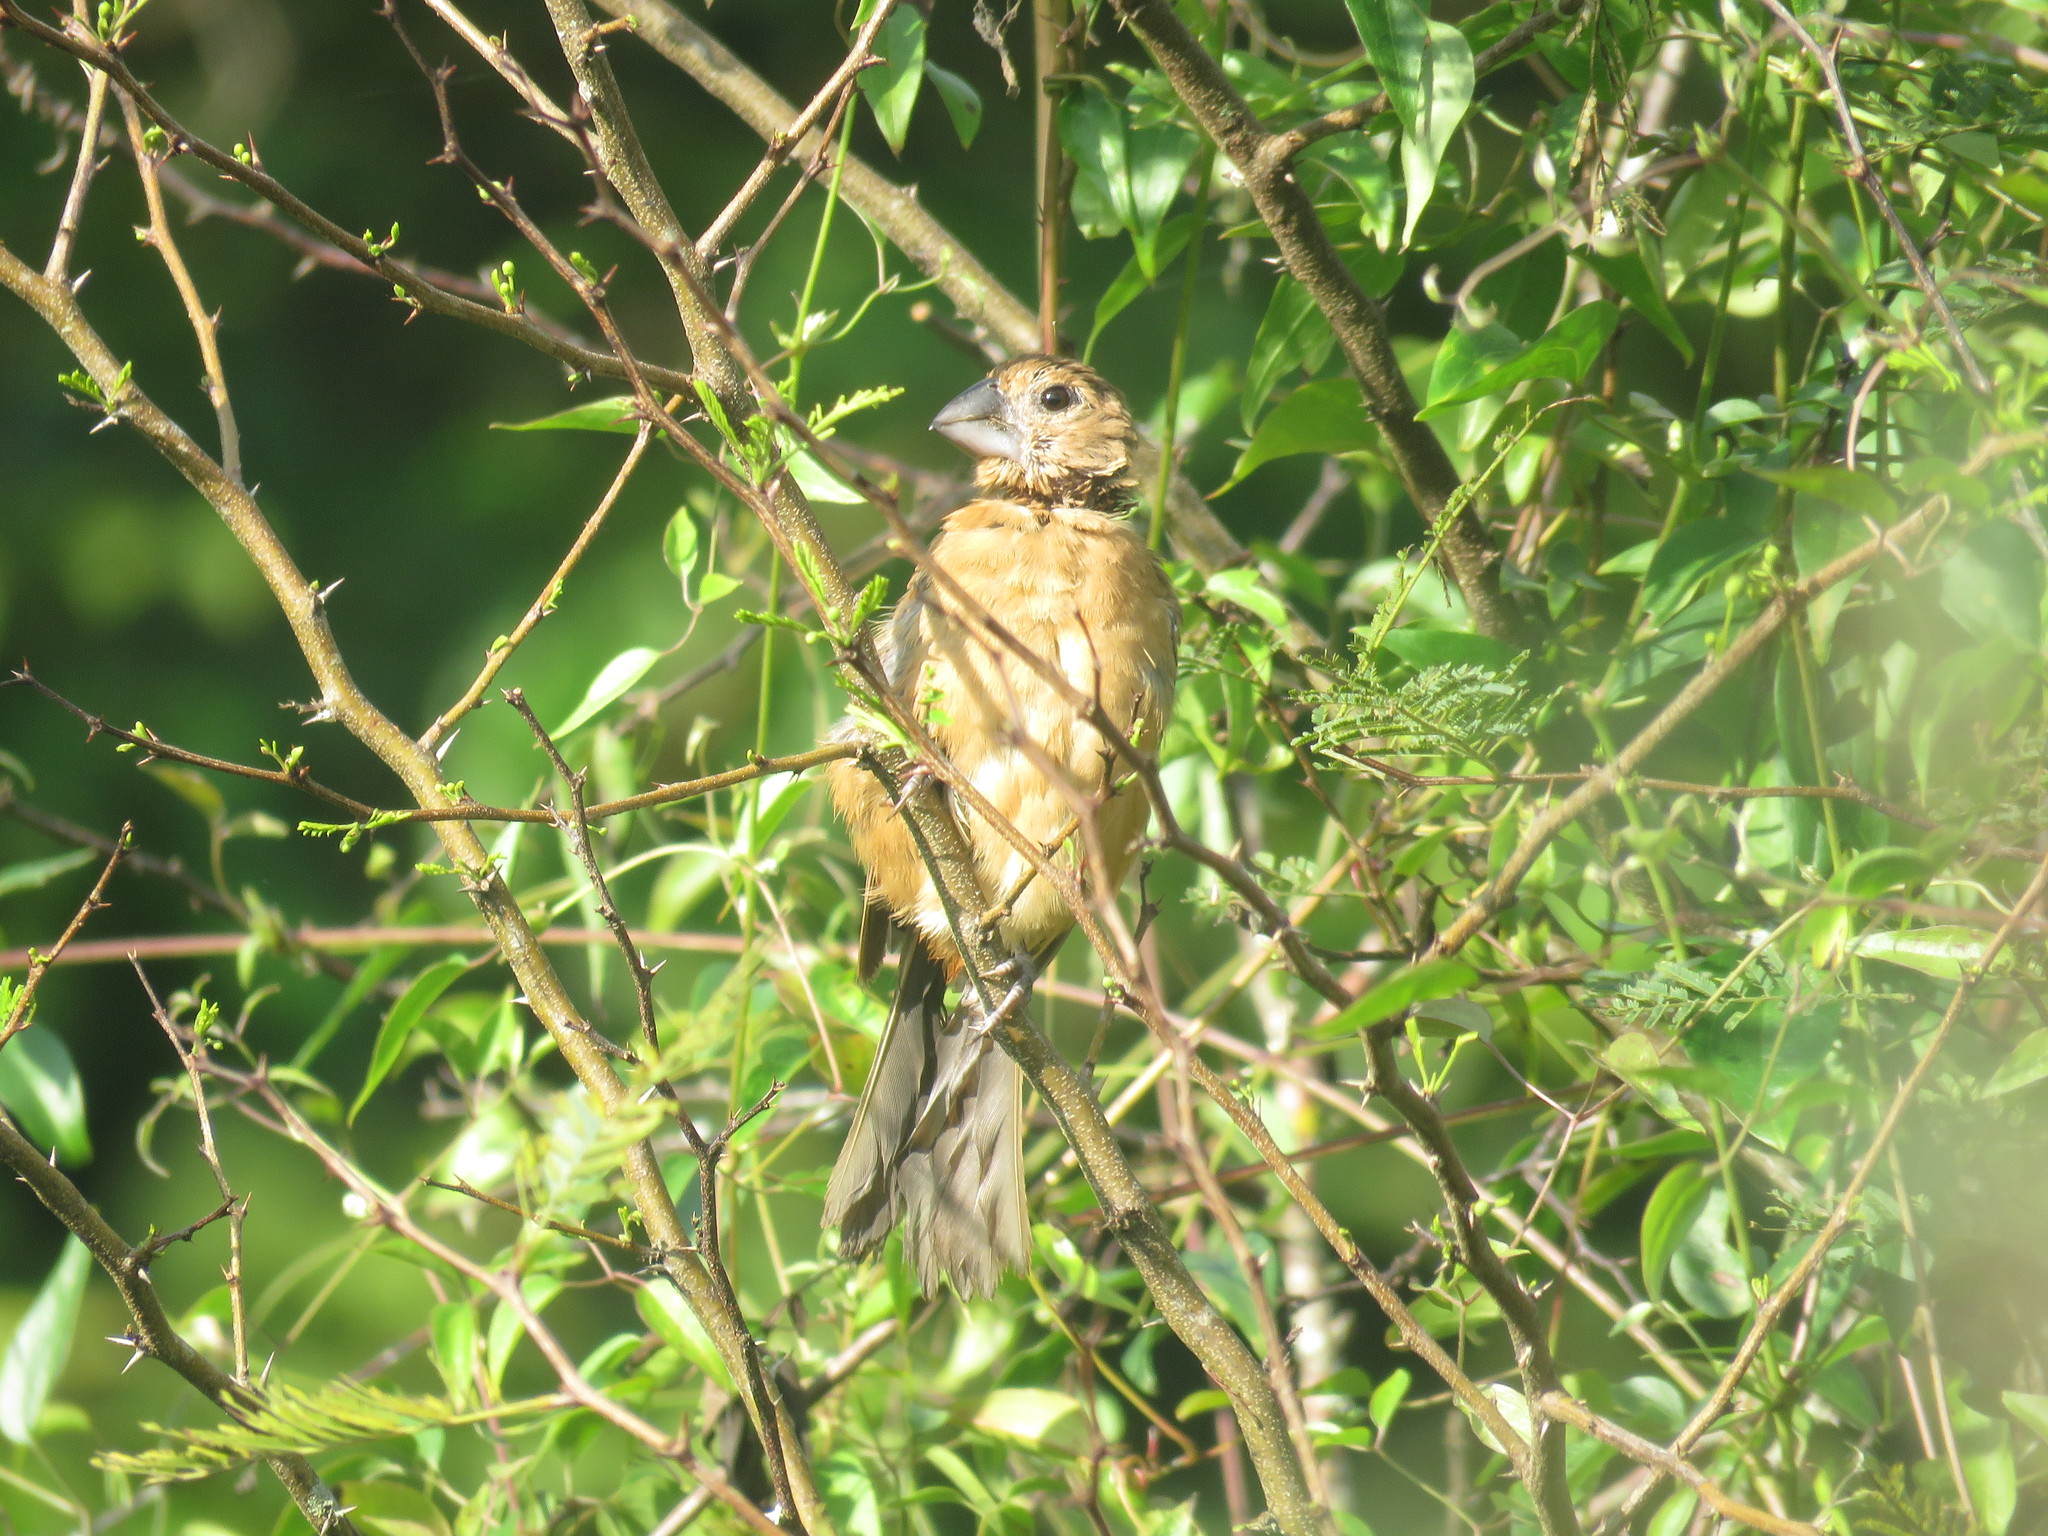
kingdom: Animalia
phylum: Chordata
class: Aves
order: Passeriformes
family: Cardinalidae
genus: Cyanoloxia
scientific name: Cyanoloxia brissonii
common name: Ultramarine grosbeak
